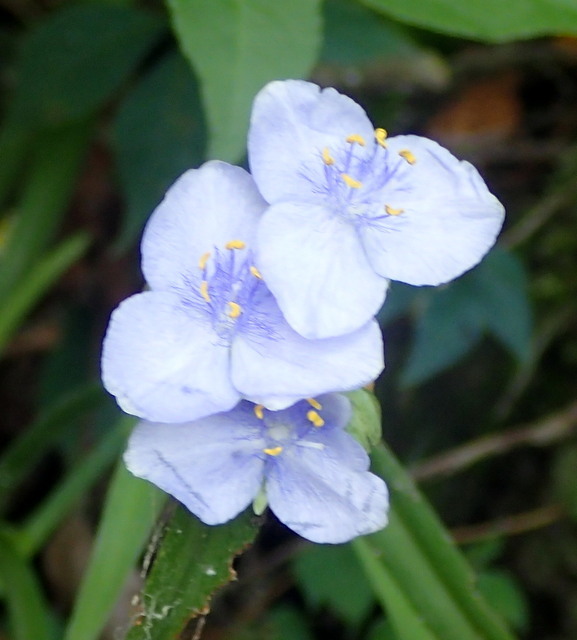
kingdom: Plantae
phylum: Tracheophyta
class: Liliopsida
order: Commelinales
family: Commelinaceae
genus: Tradescantia
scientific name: Tradescantia ohiensis
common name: Ohio spiderwort
